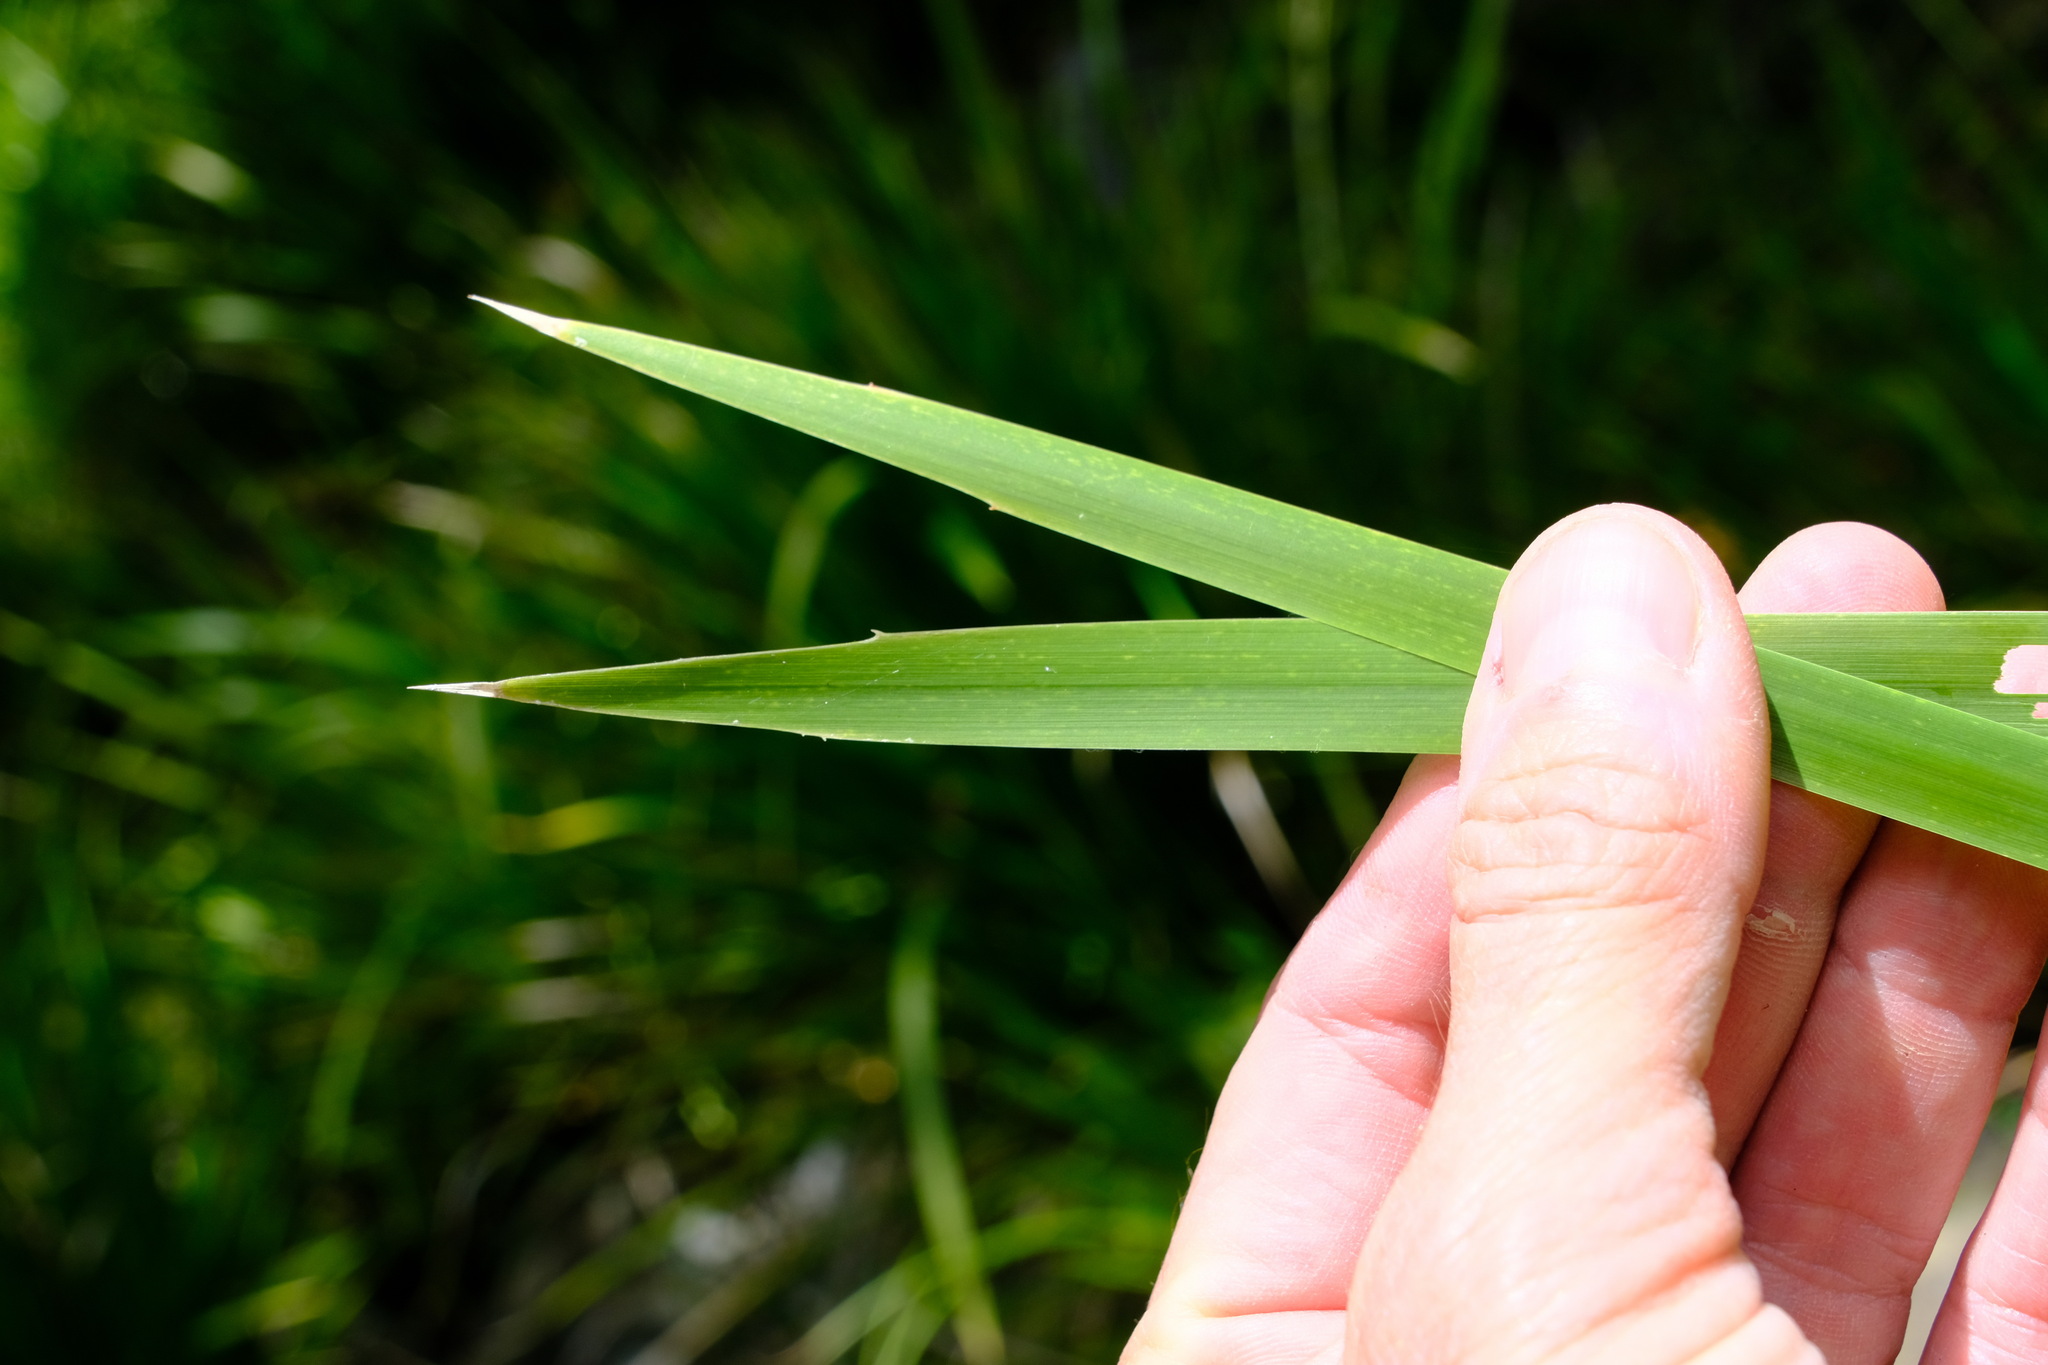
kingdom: Plantae
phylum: Tracheophyta
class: Liliopsida
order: Asparagales
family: Asparagaceae
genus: Lomandra
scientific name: Lomandra hystrix
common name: Creek mat-rush
